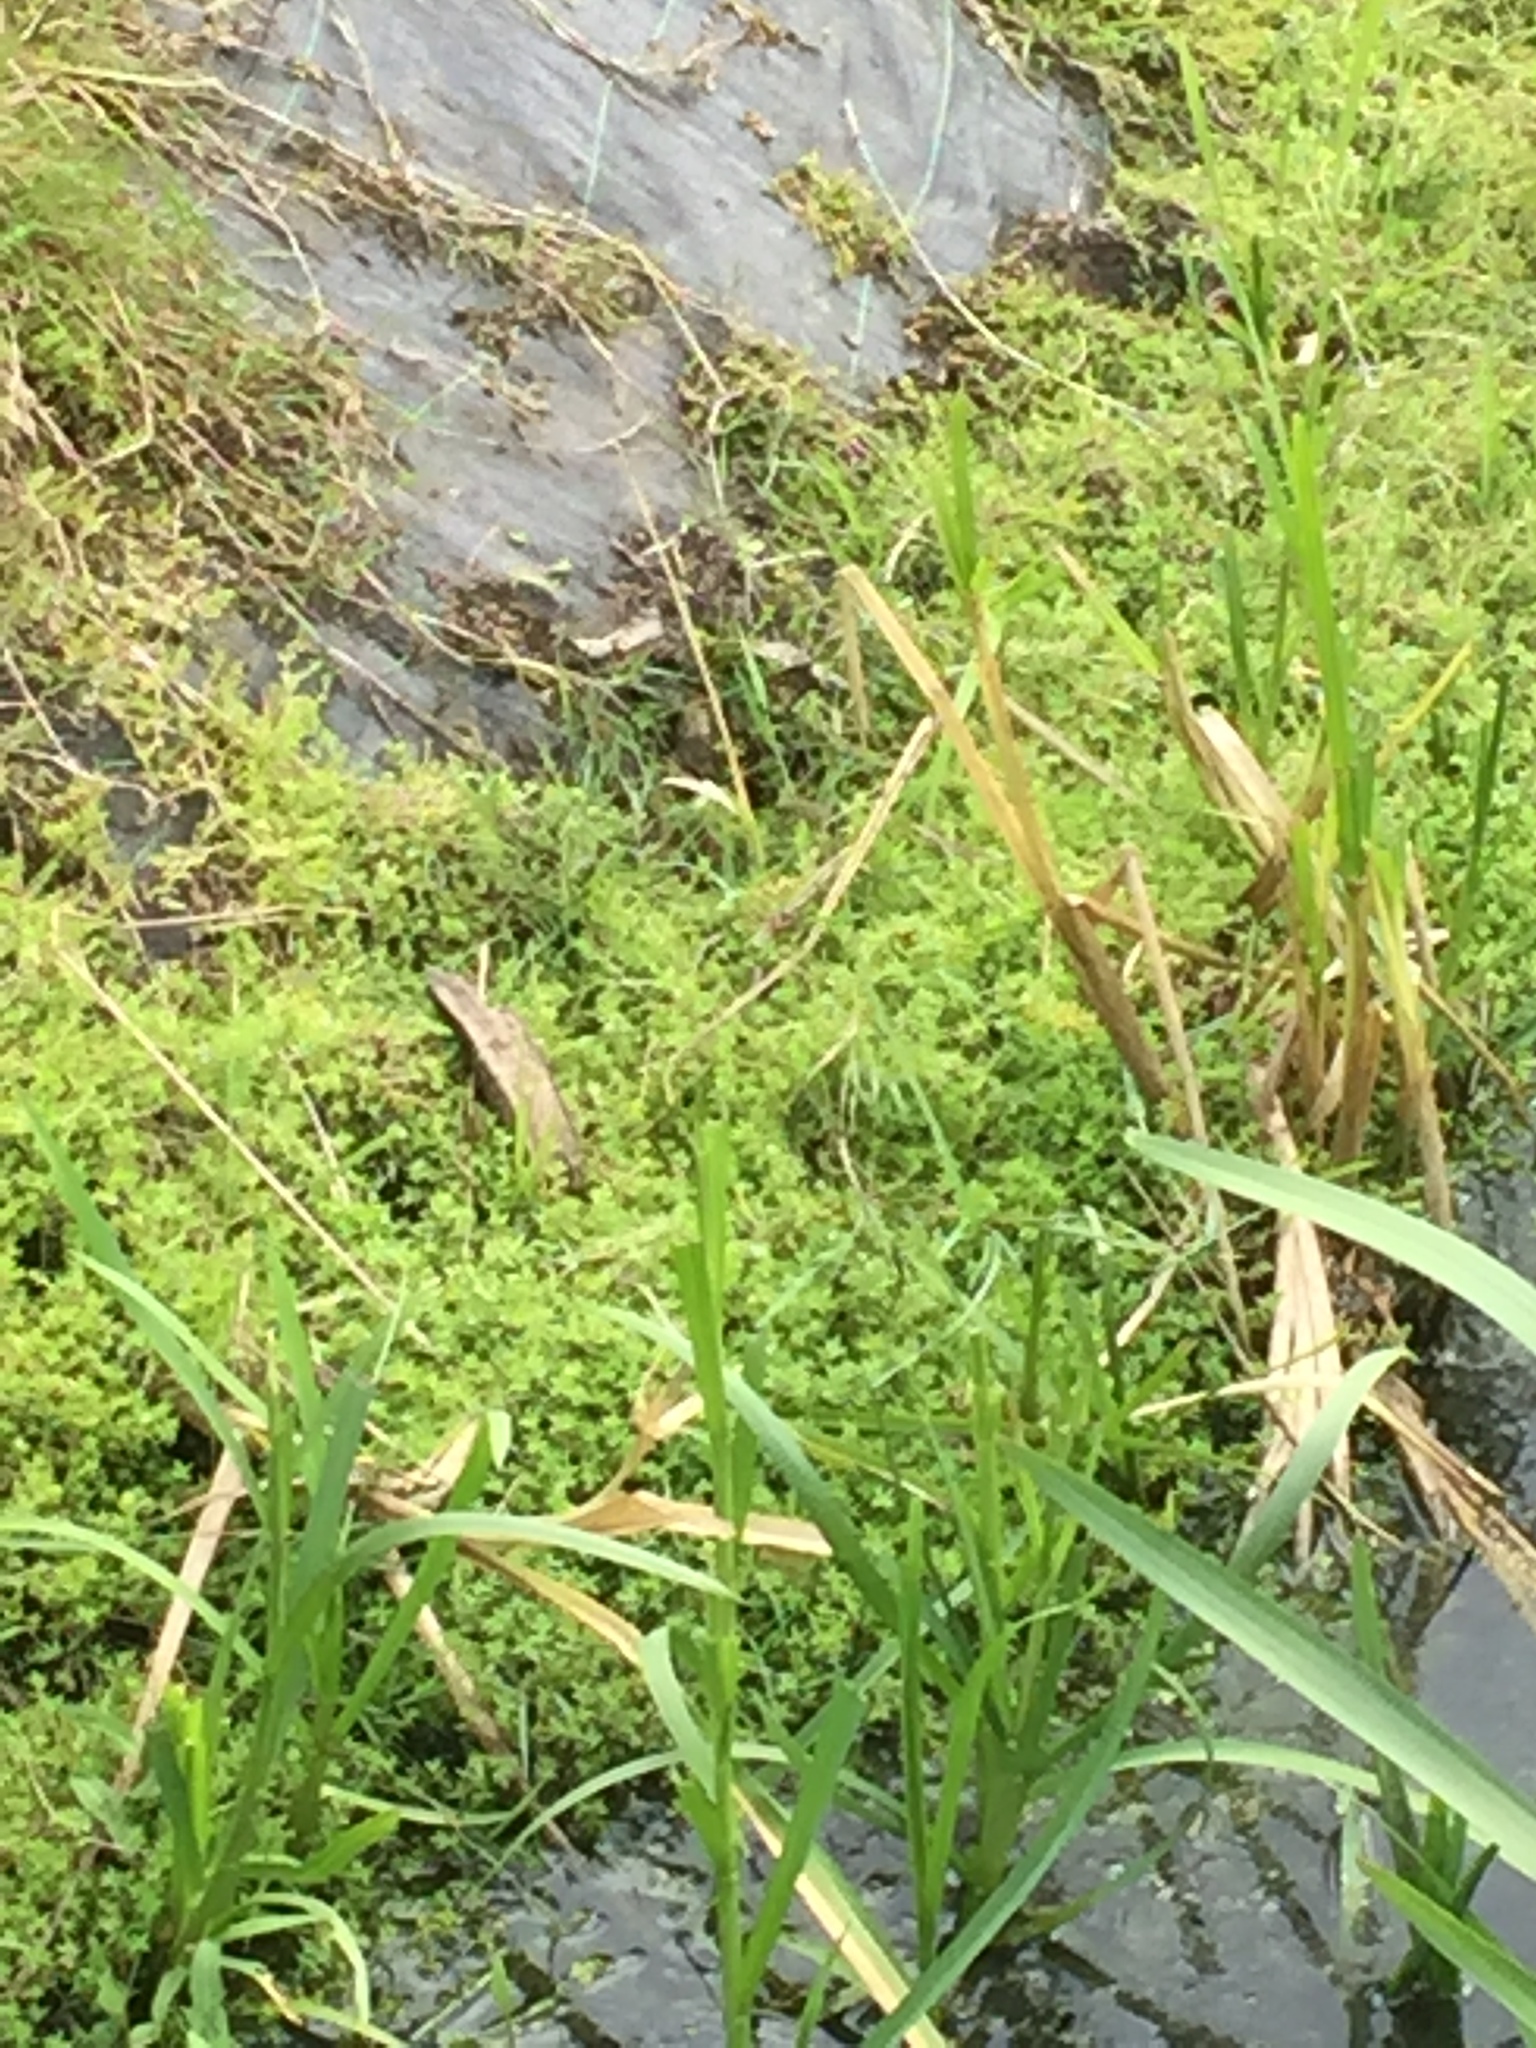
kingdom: Plantae
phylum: Tracheophyta
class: Magnoliopsida
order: Saxifragales
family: Crassulaceae
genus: Crassula
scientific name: Crassula helmsii
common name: New zealand pigmyweed
